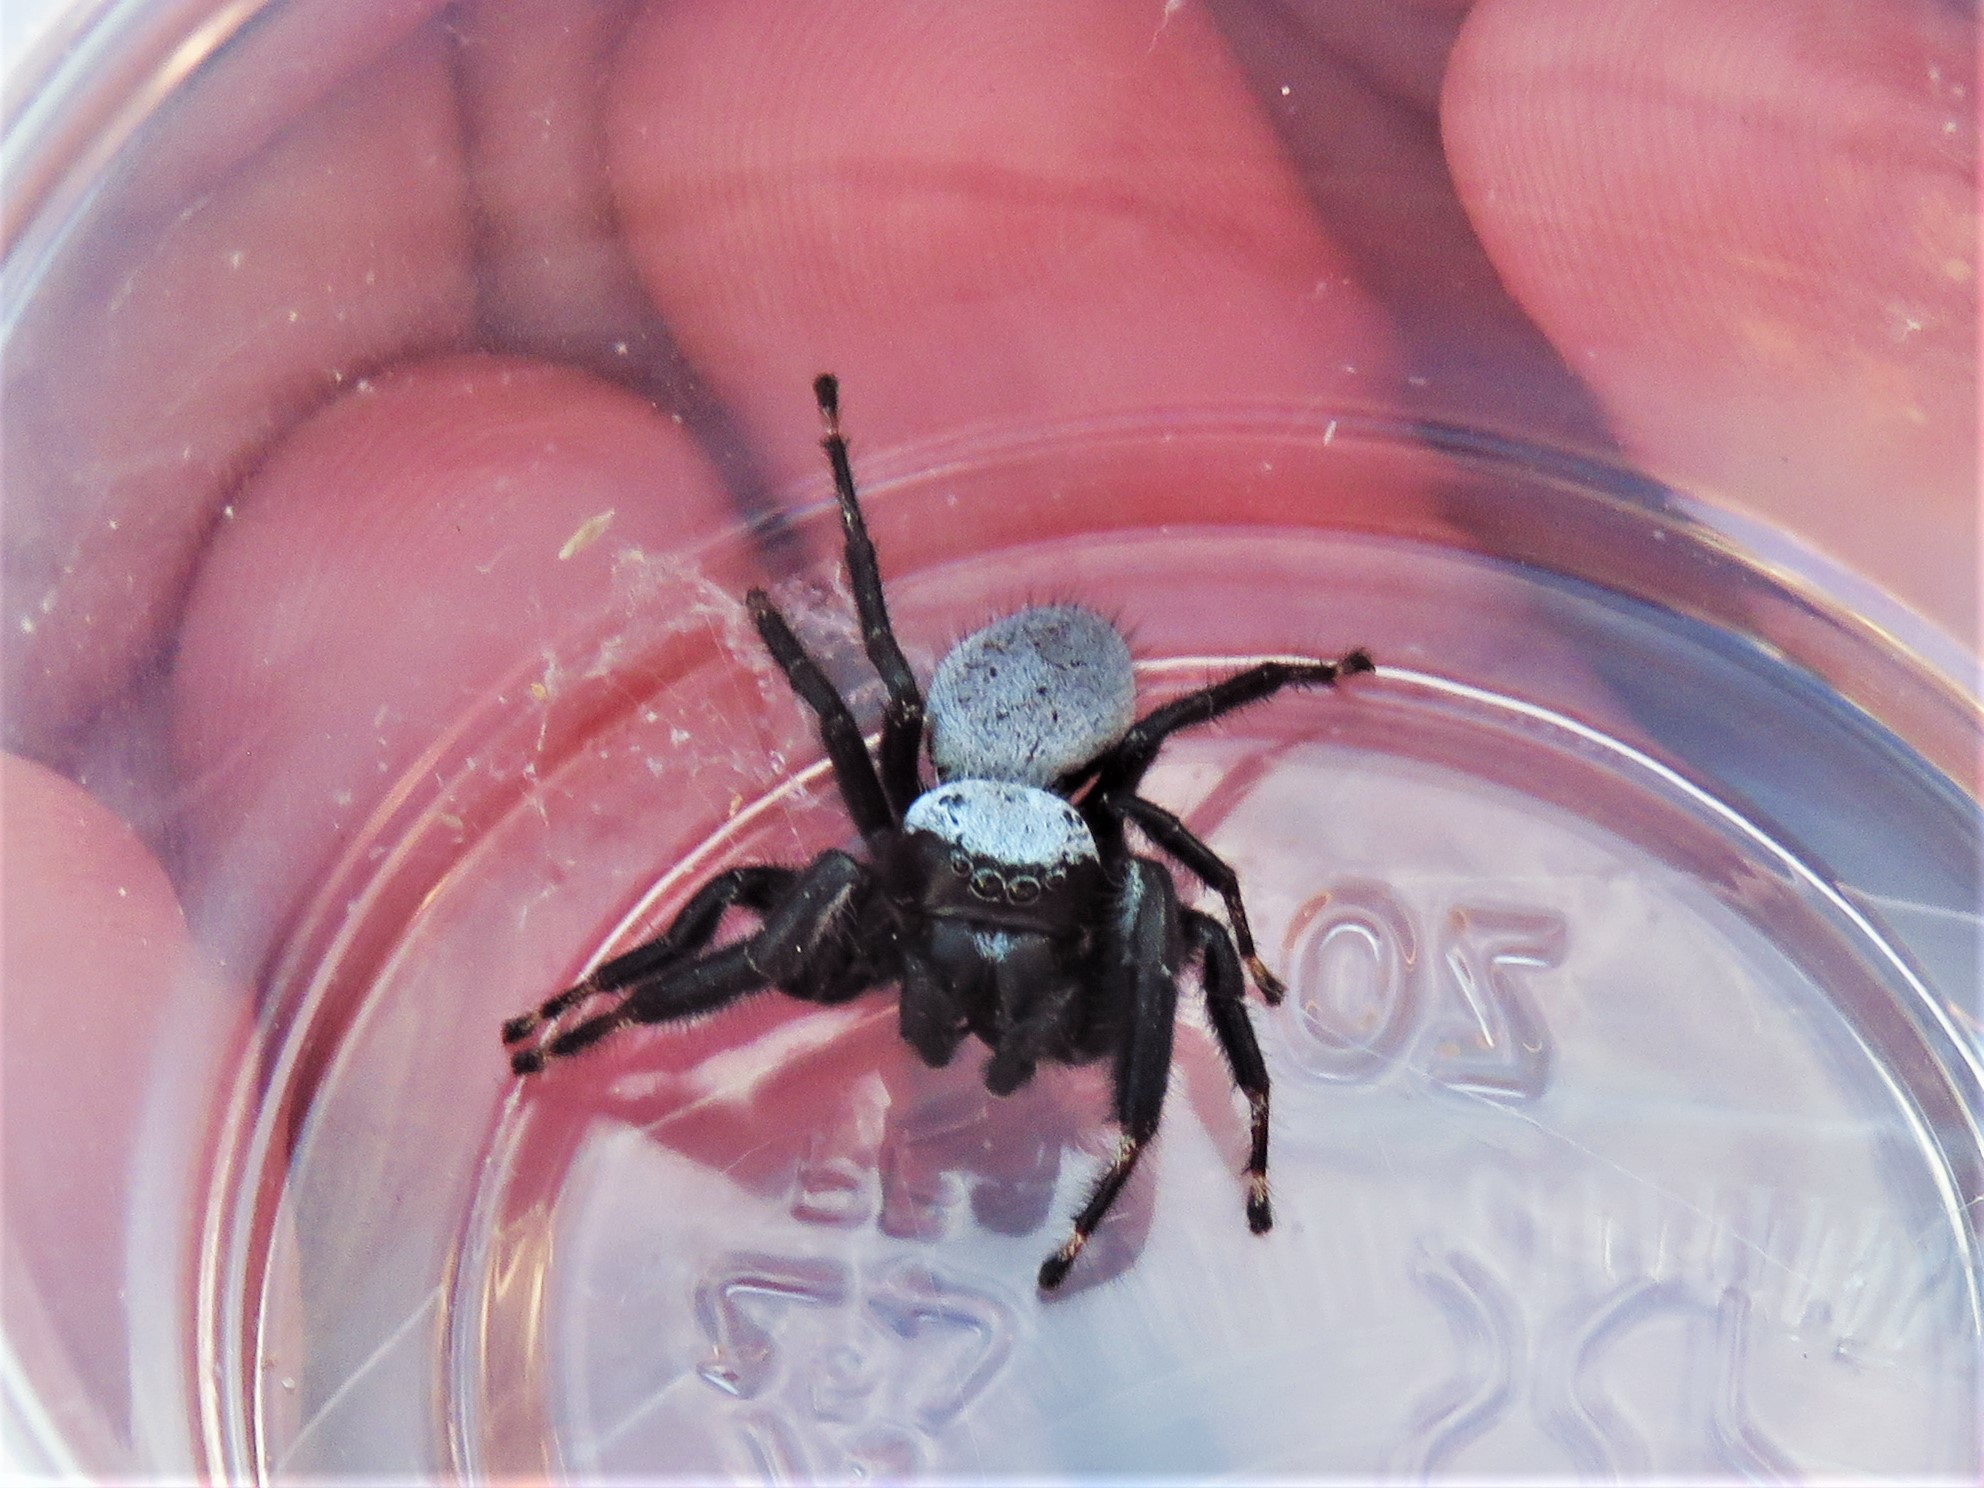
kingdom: Animalia
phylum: Arthropoda
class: Arachnida
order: Araneae
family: Salticidae
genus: Phidippus
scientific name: Phidippus octopunctatus
